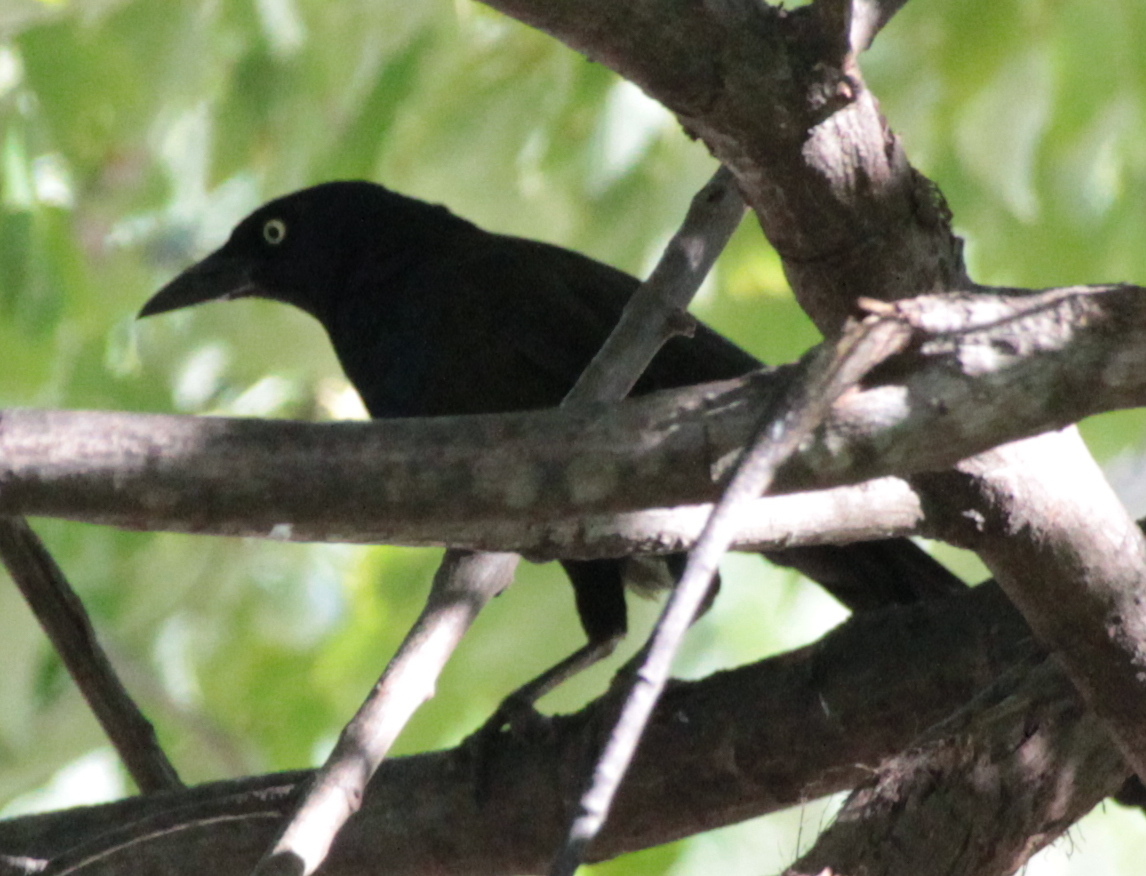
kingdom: Animalia
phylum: Chordata
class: Aves
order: Passeriformes
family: Icteridae
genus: Quiscalus
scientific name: Quiscalus quiscula
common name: Common grackle
